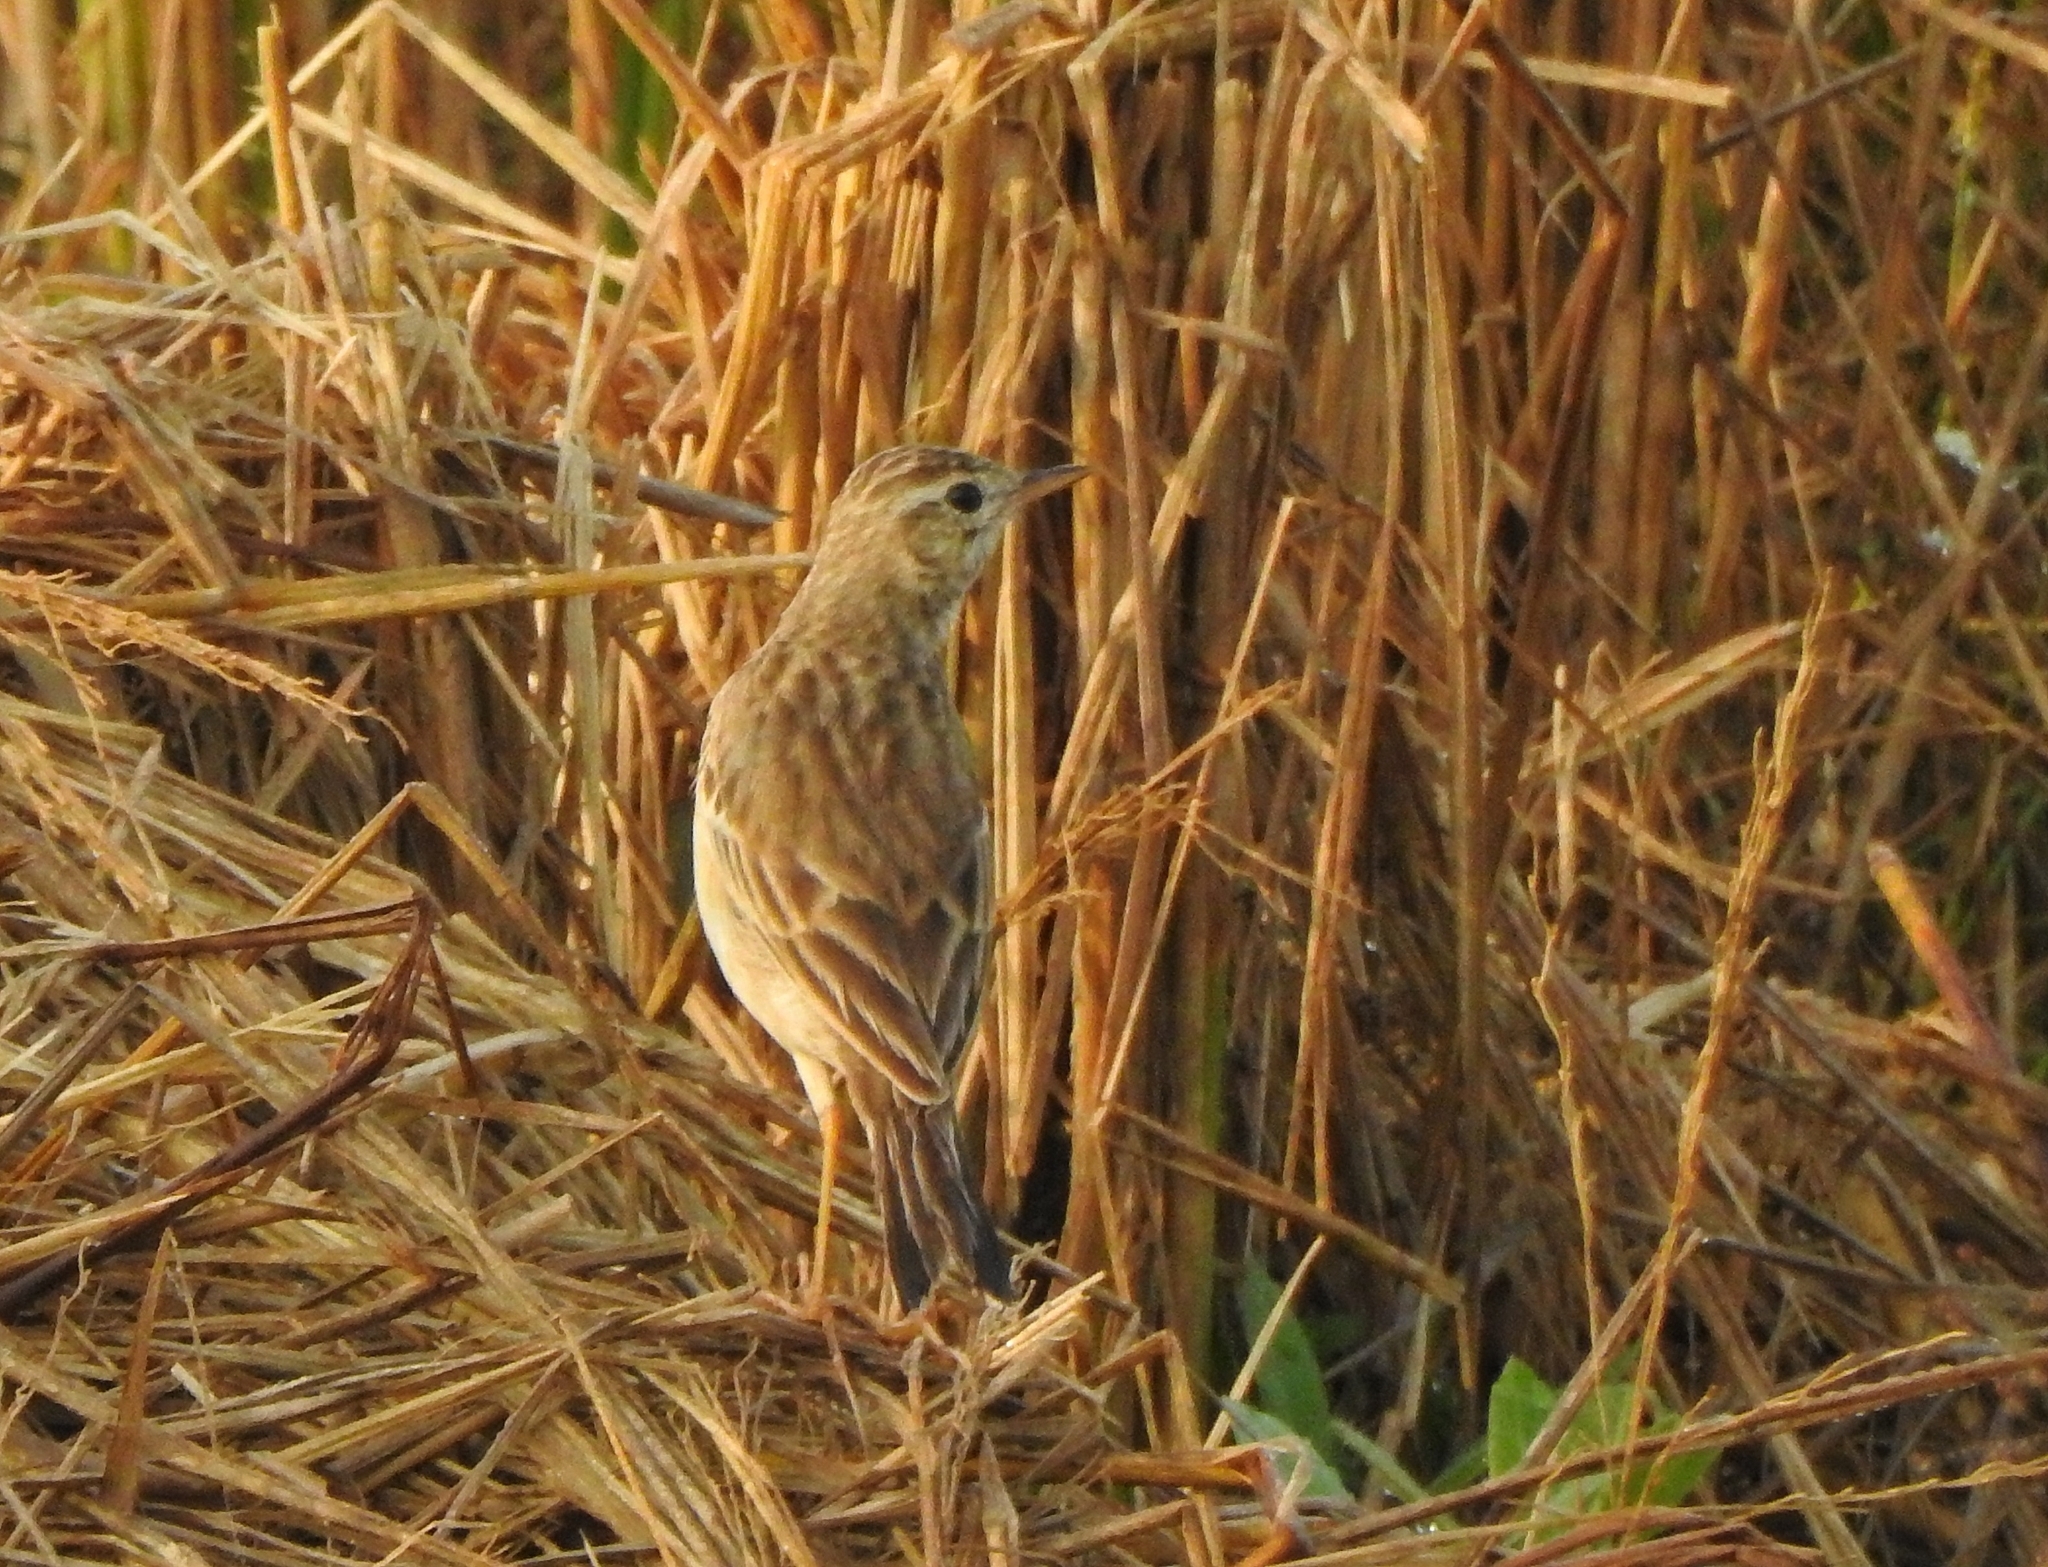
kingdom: Animalia
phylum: Chordata
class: Aves
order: Passeriformes
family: Motacillidae
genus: Anthus
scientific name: Anthus rufulus
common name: Paddyfield pipit
